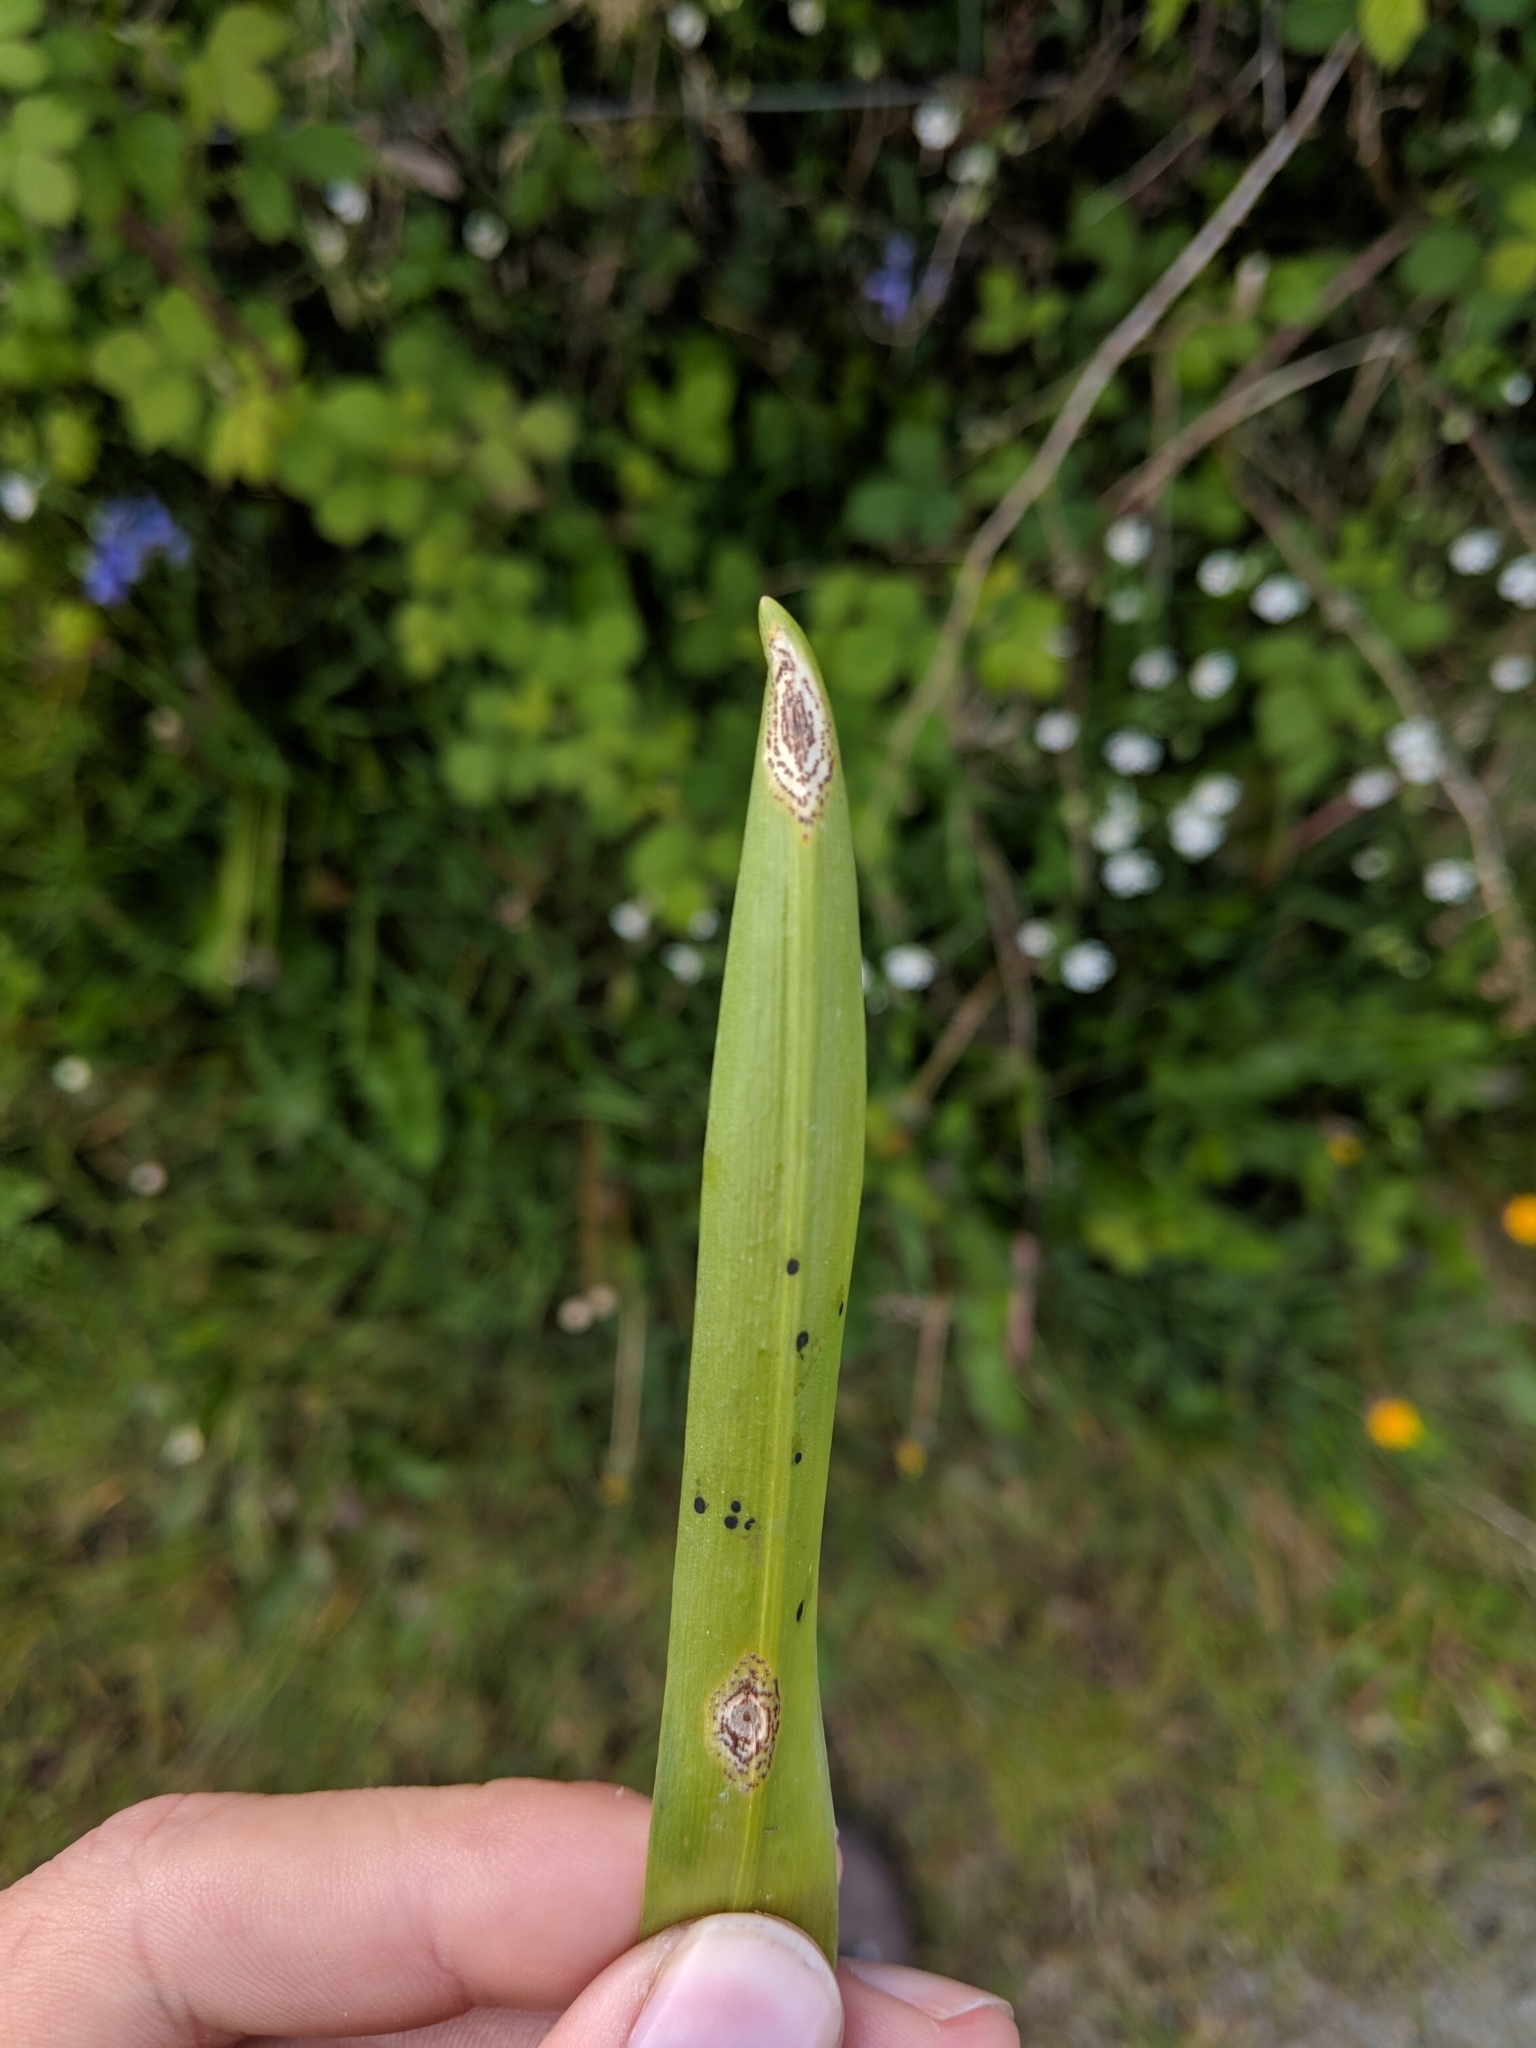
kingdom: Fungi
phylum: Basidiomycota
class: Pucciniomycetes
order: Pucciniales
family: Pucciniaceae
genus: Uromyces
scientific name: Uromyces hyacinthi
